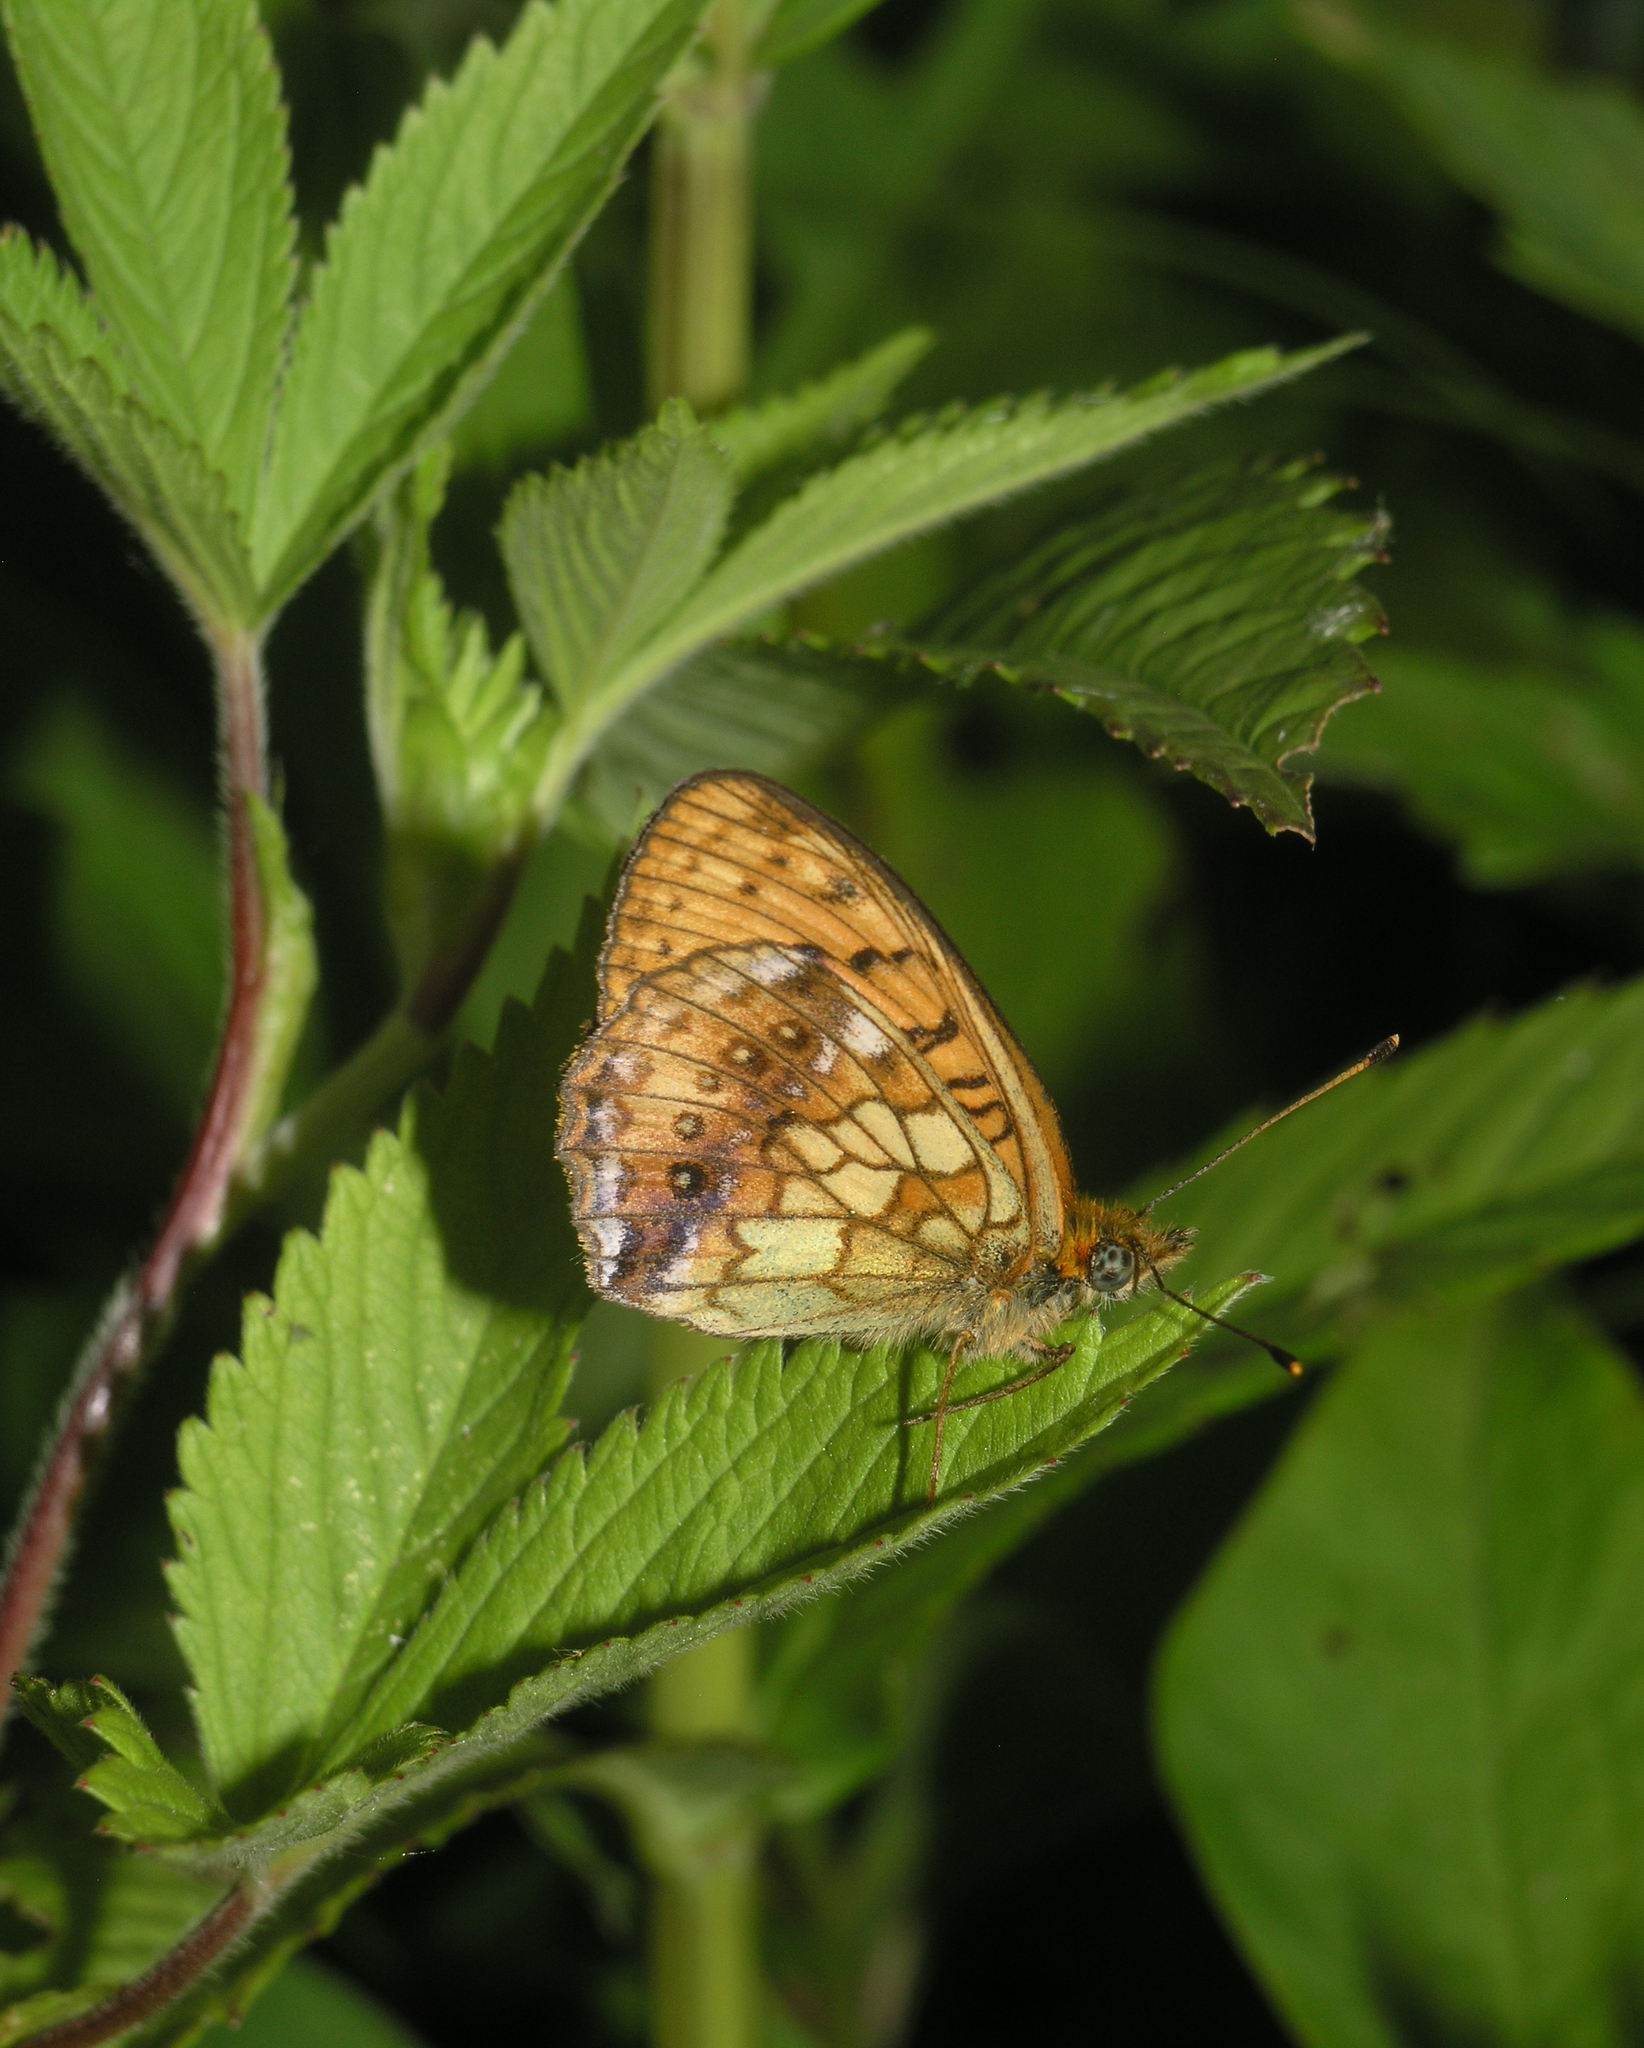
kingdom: Animalia
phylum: Arthropoda
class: Insecta
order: Lepidoptera
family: Nymphalidae
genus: Brenthis
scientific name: Brenthis ino
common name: Lesser marbled fritillary
